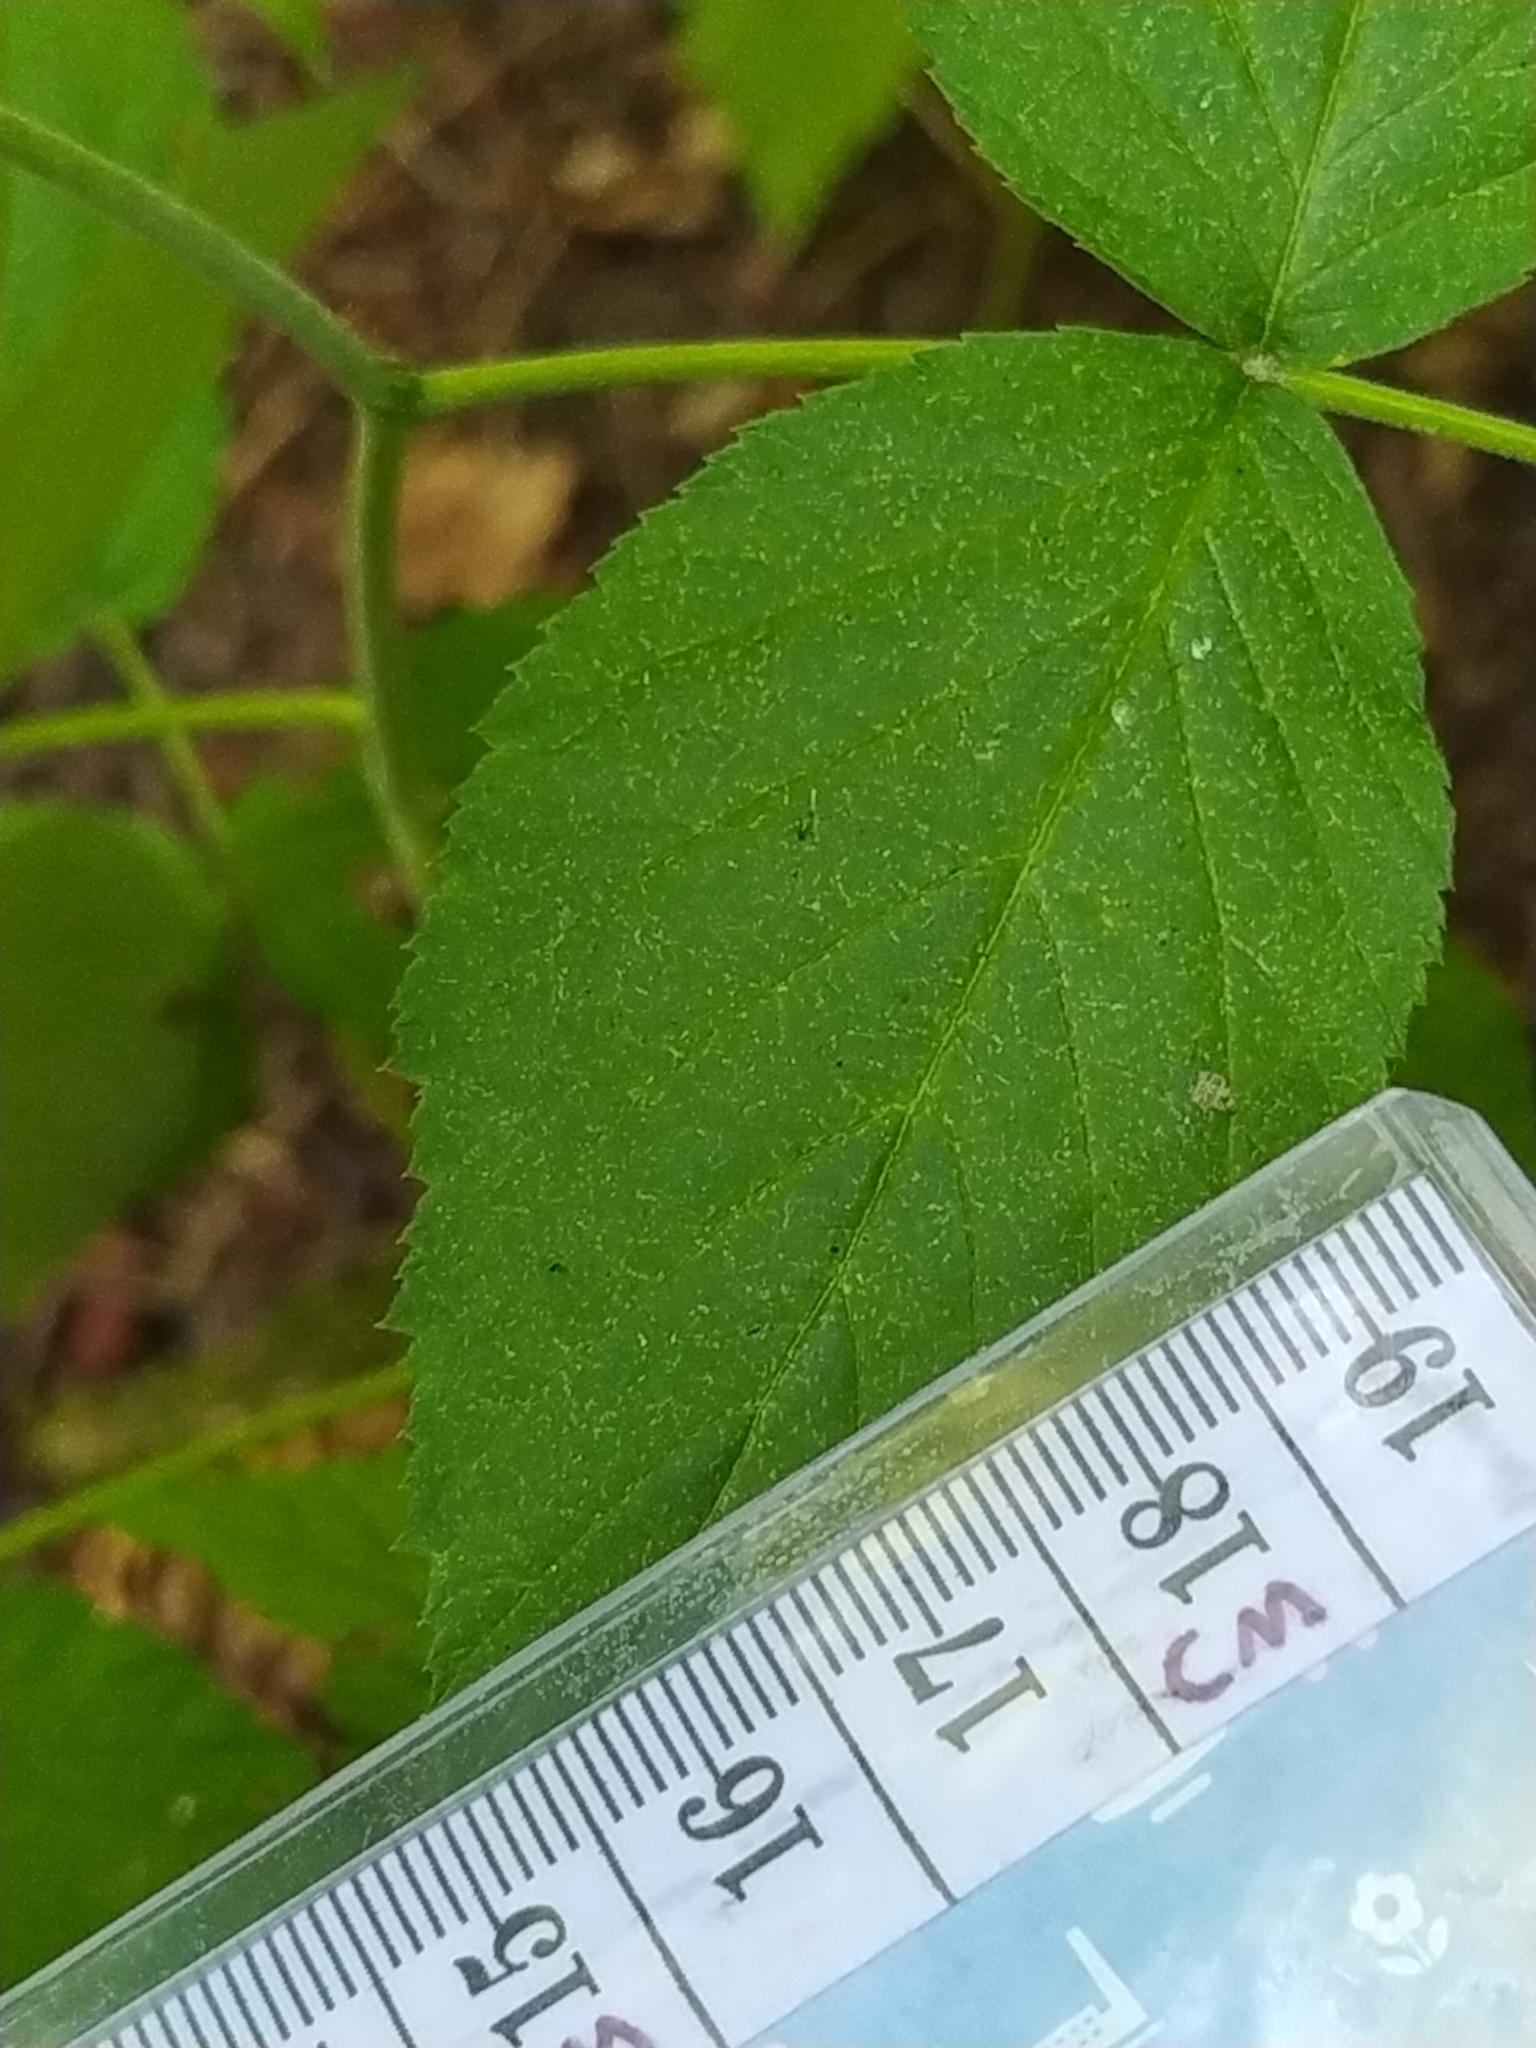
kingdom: Animalia
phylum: Arthropoda
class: Insecta
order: Diptera
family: Tachinidae
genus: Dexiosoma
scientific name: Dexiosoma caninum
